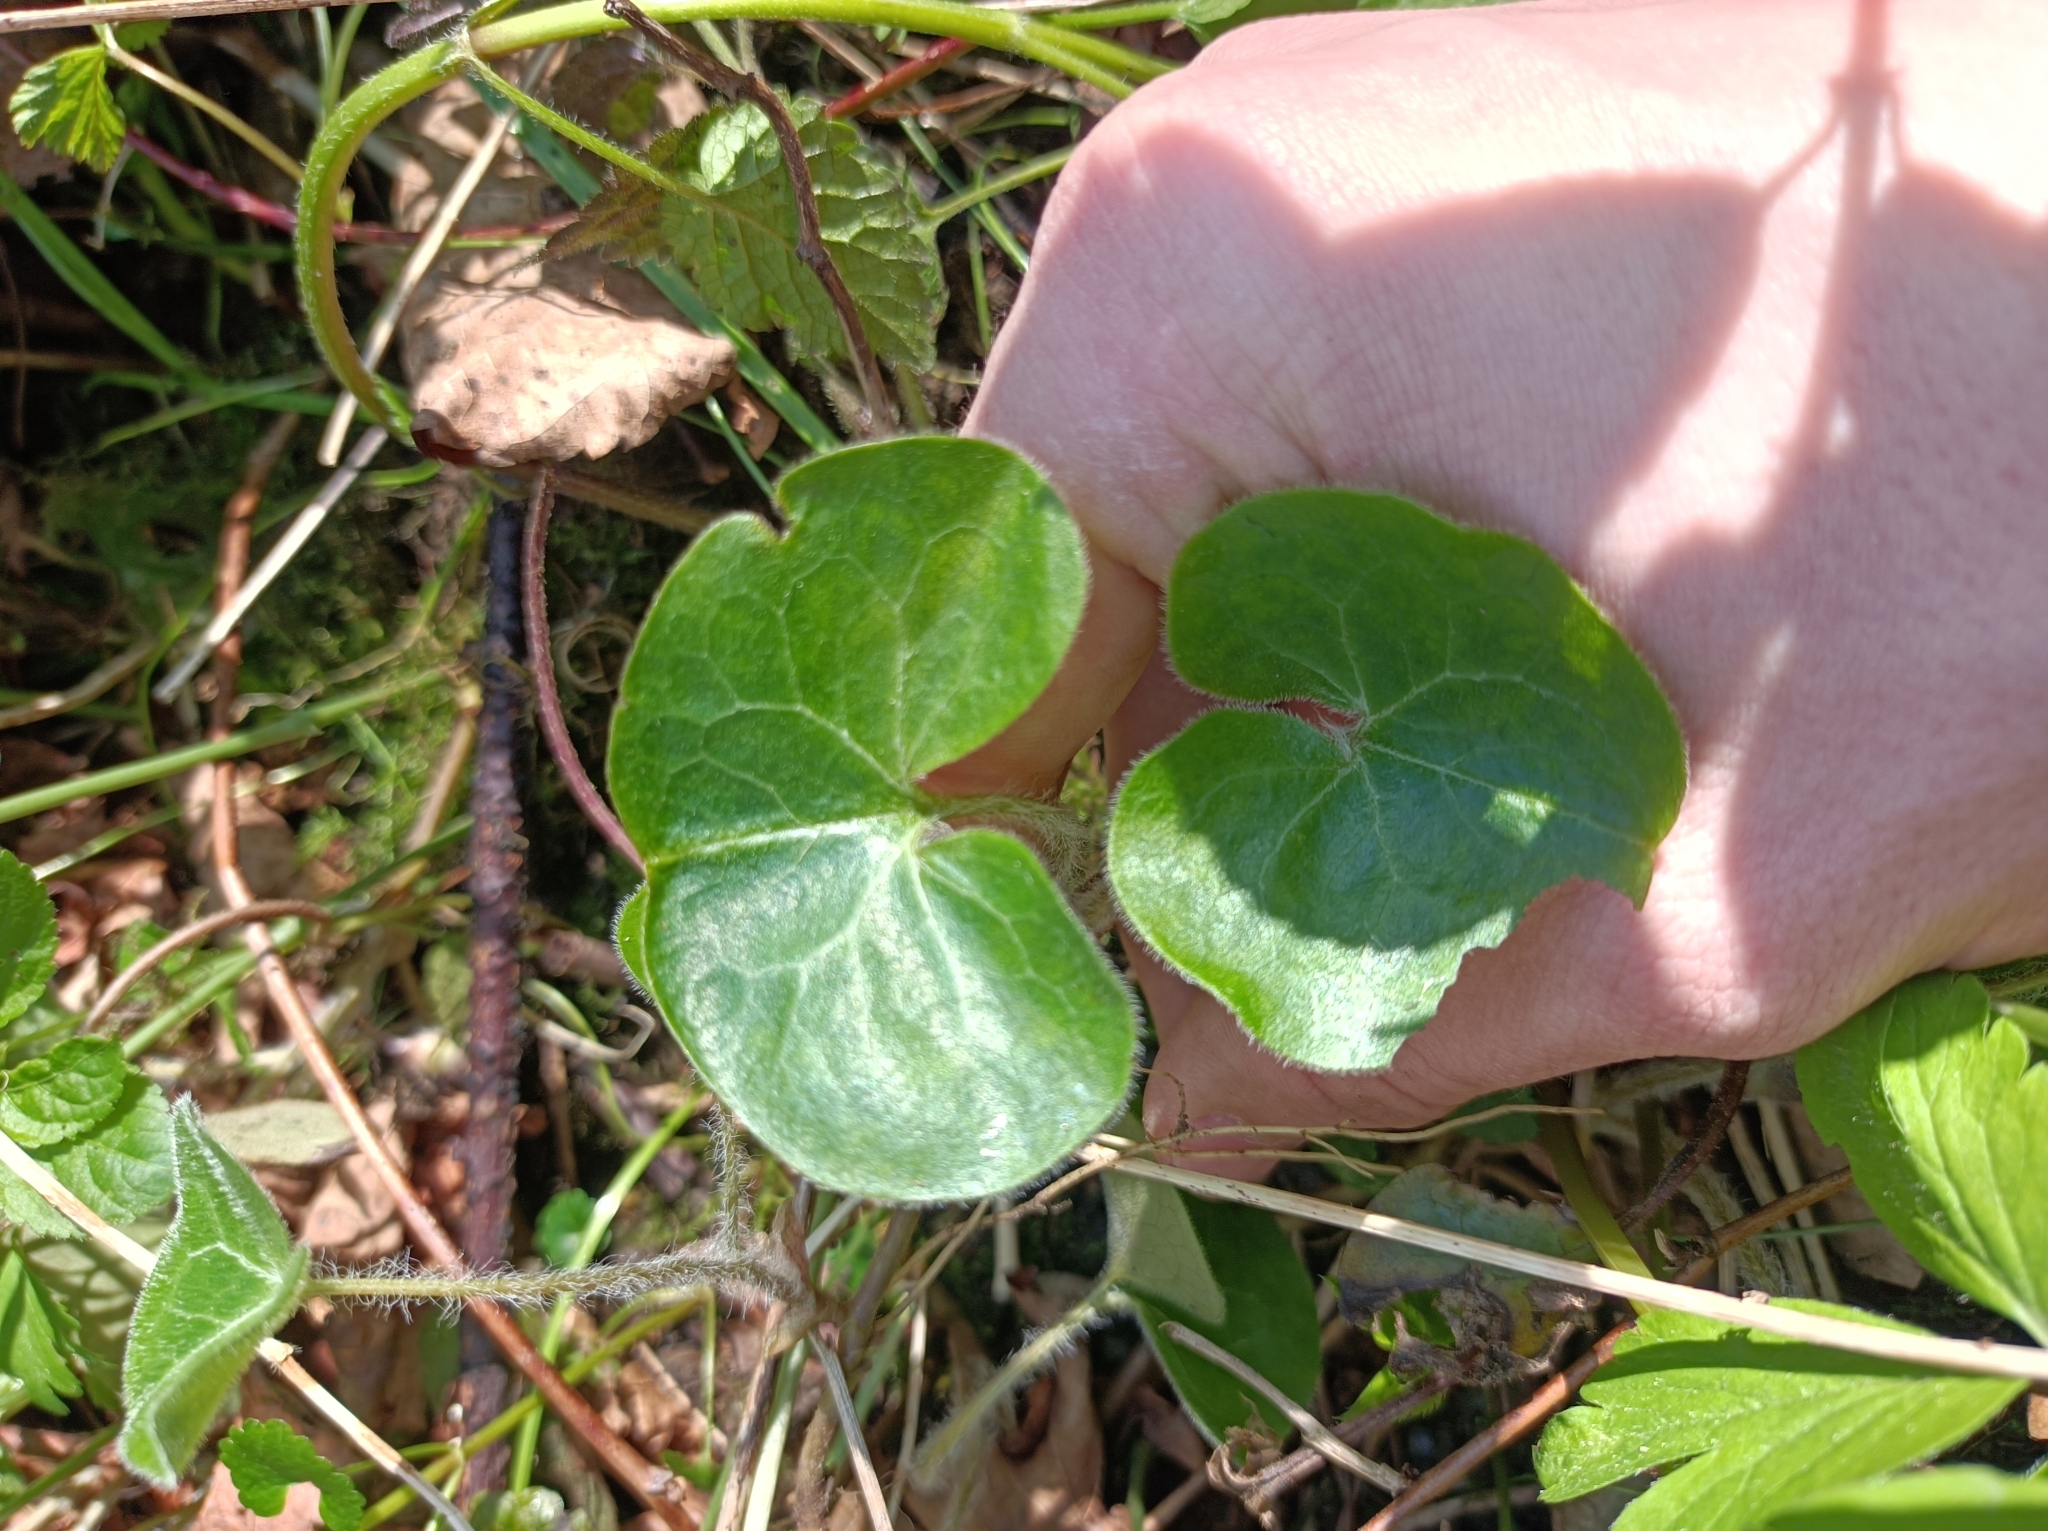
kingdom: Plantae
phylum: Tracheophyta
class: Magnoliopsida
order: Piperales
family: Aristolochiaceae
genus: Asarum
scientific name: Asarum europaeum
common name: Asarabacca
